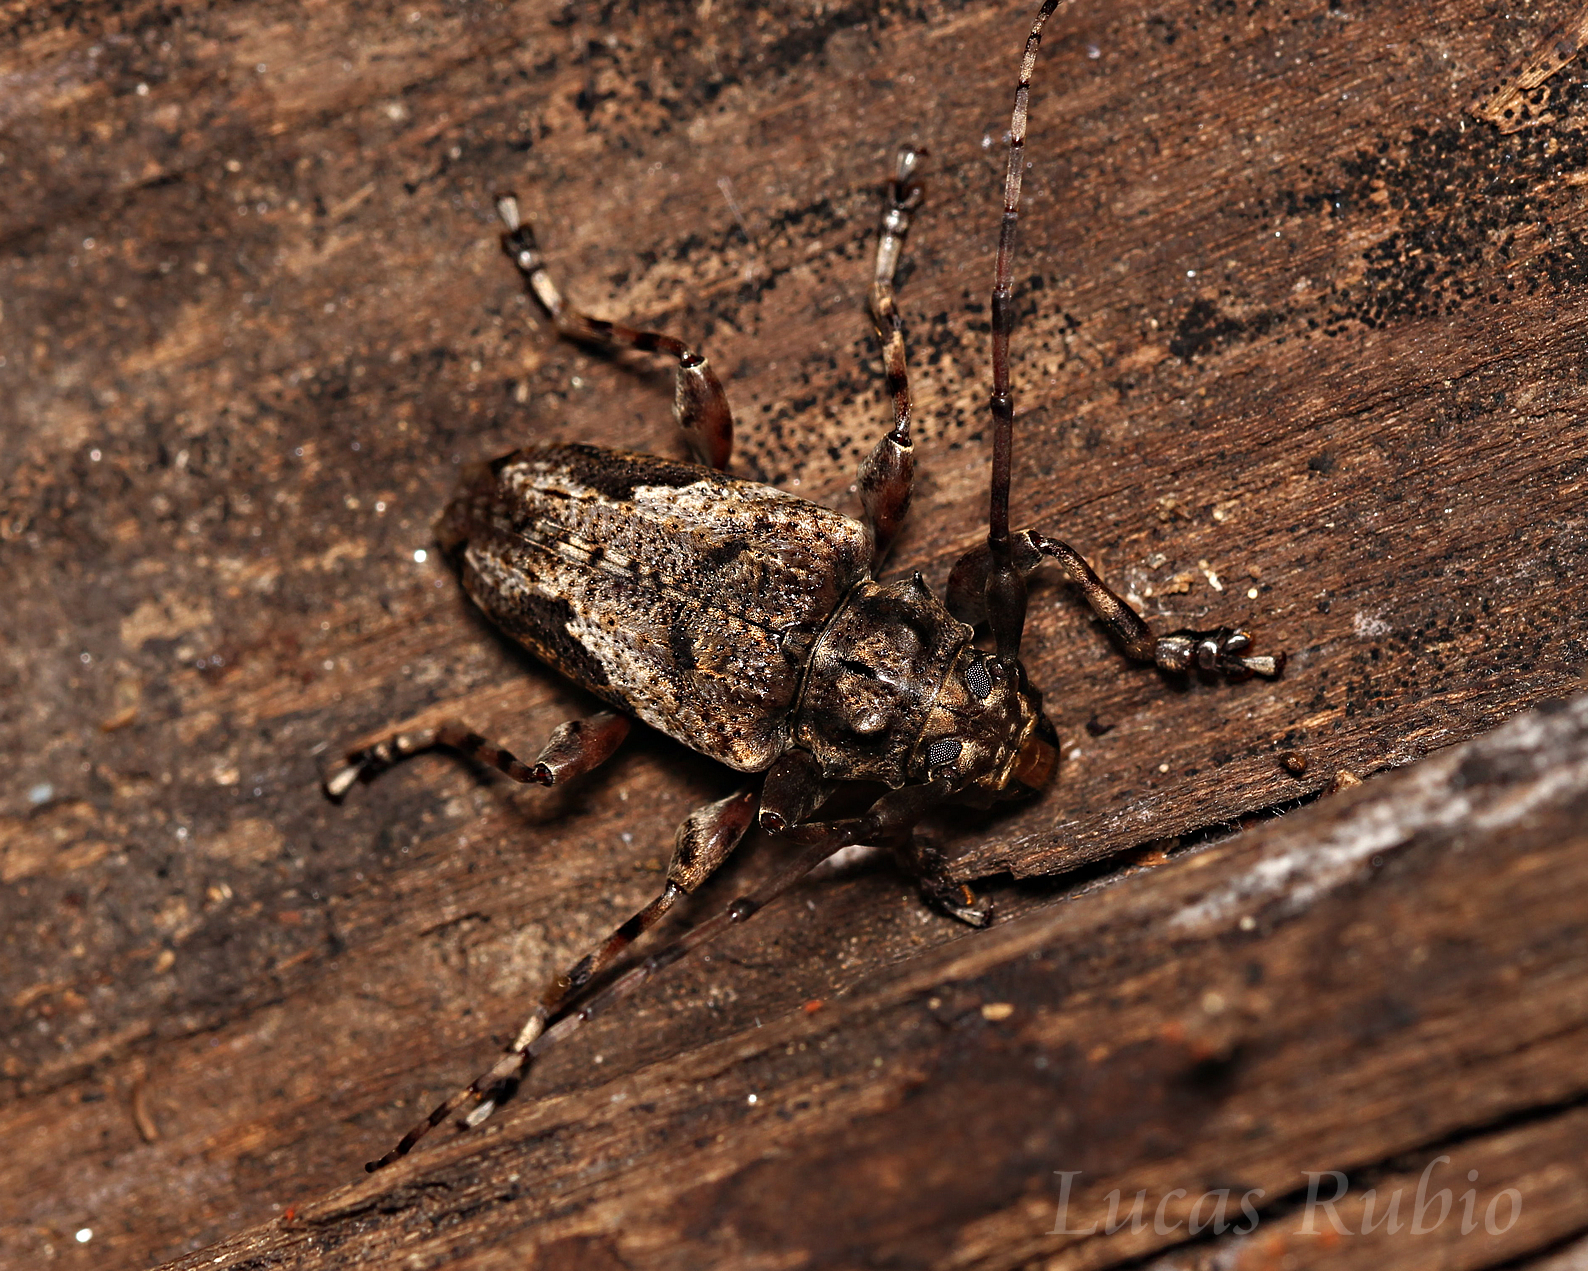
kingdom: Animalia
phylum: Arthropoda
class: Insecta
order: Coleoptera
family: Cerambycidae
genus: Psapharochrus
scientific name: Psapharochrus jaspideus
